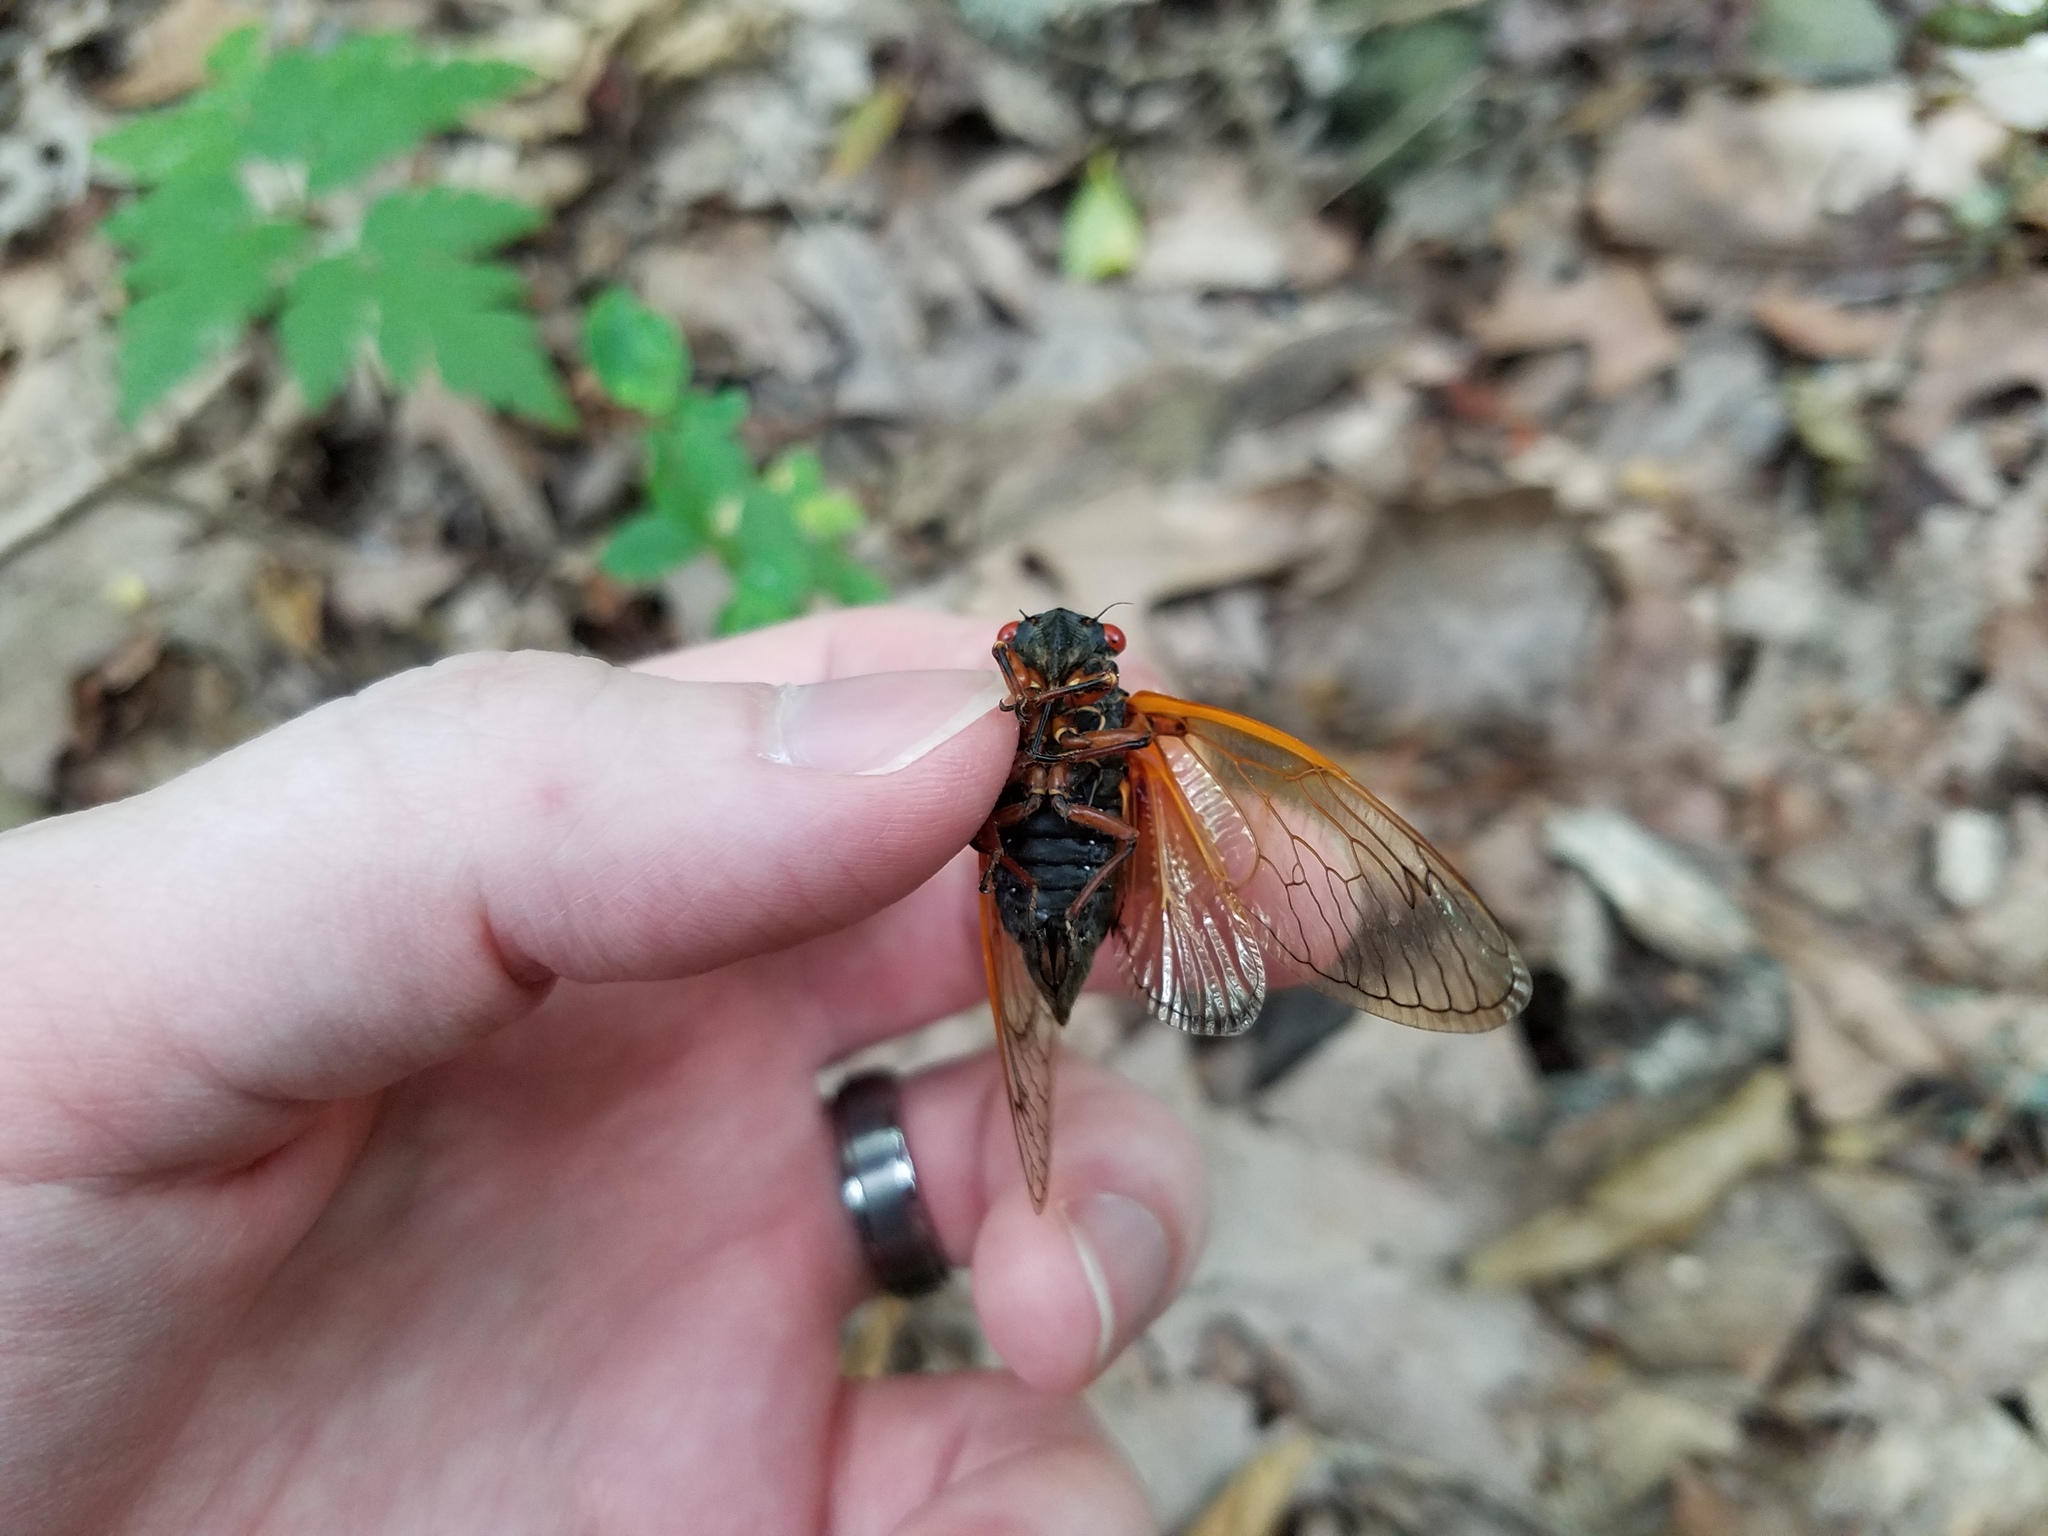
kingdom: Animalia
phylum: Arthropoda
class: Insecta
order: Hemiptera
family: Cicadidae
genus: Magicicada
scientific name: Magicicada cassini
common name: Cassin's 17-year cicada
